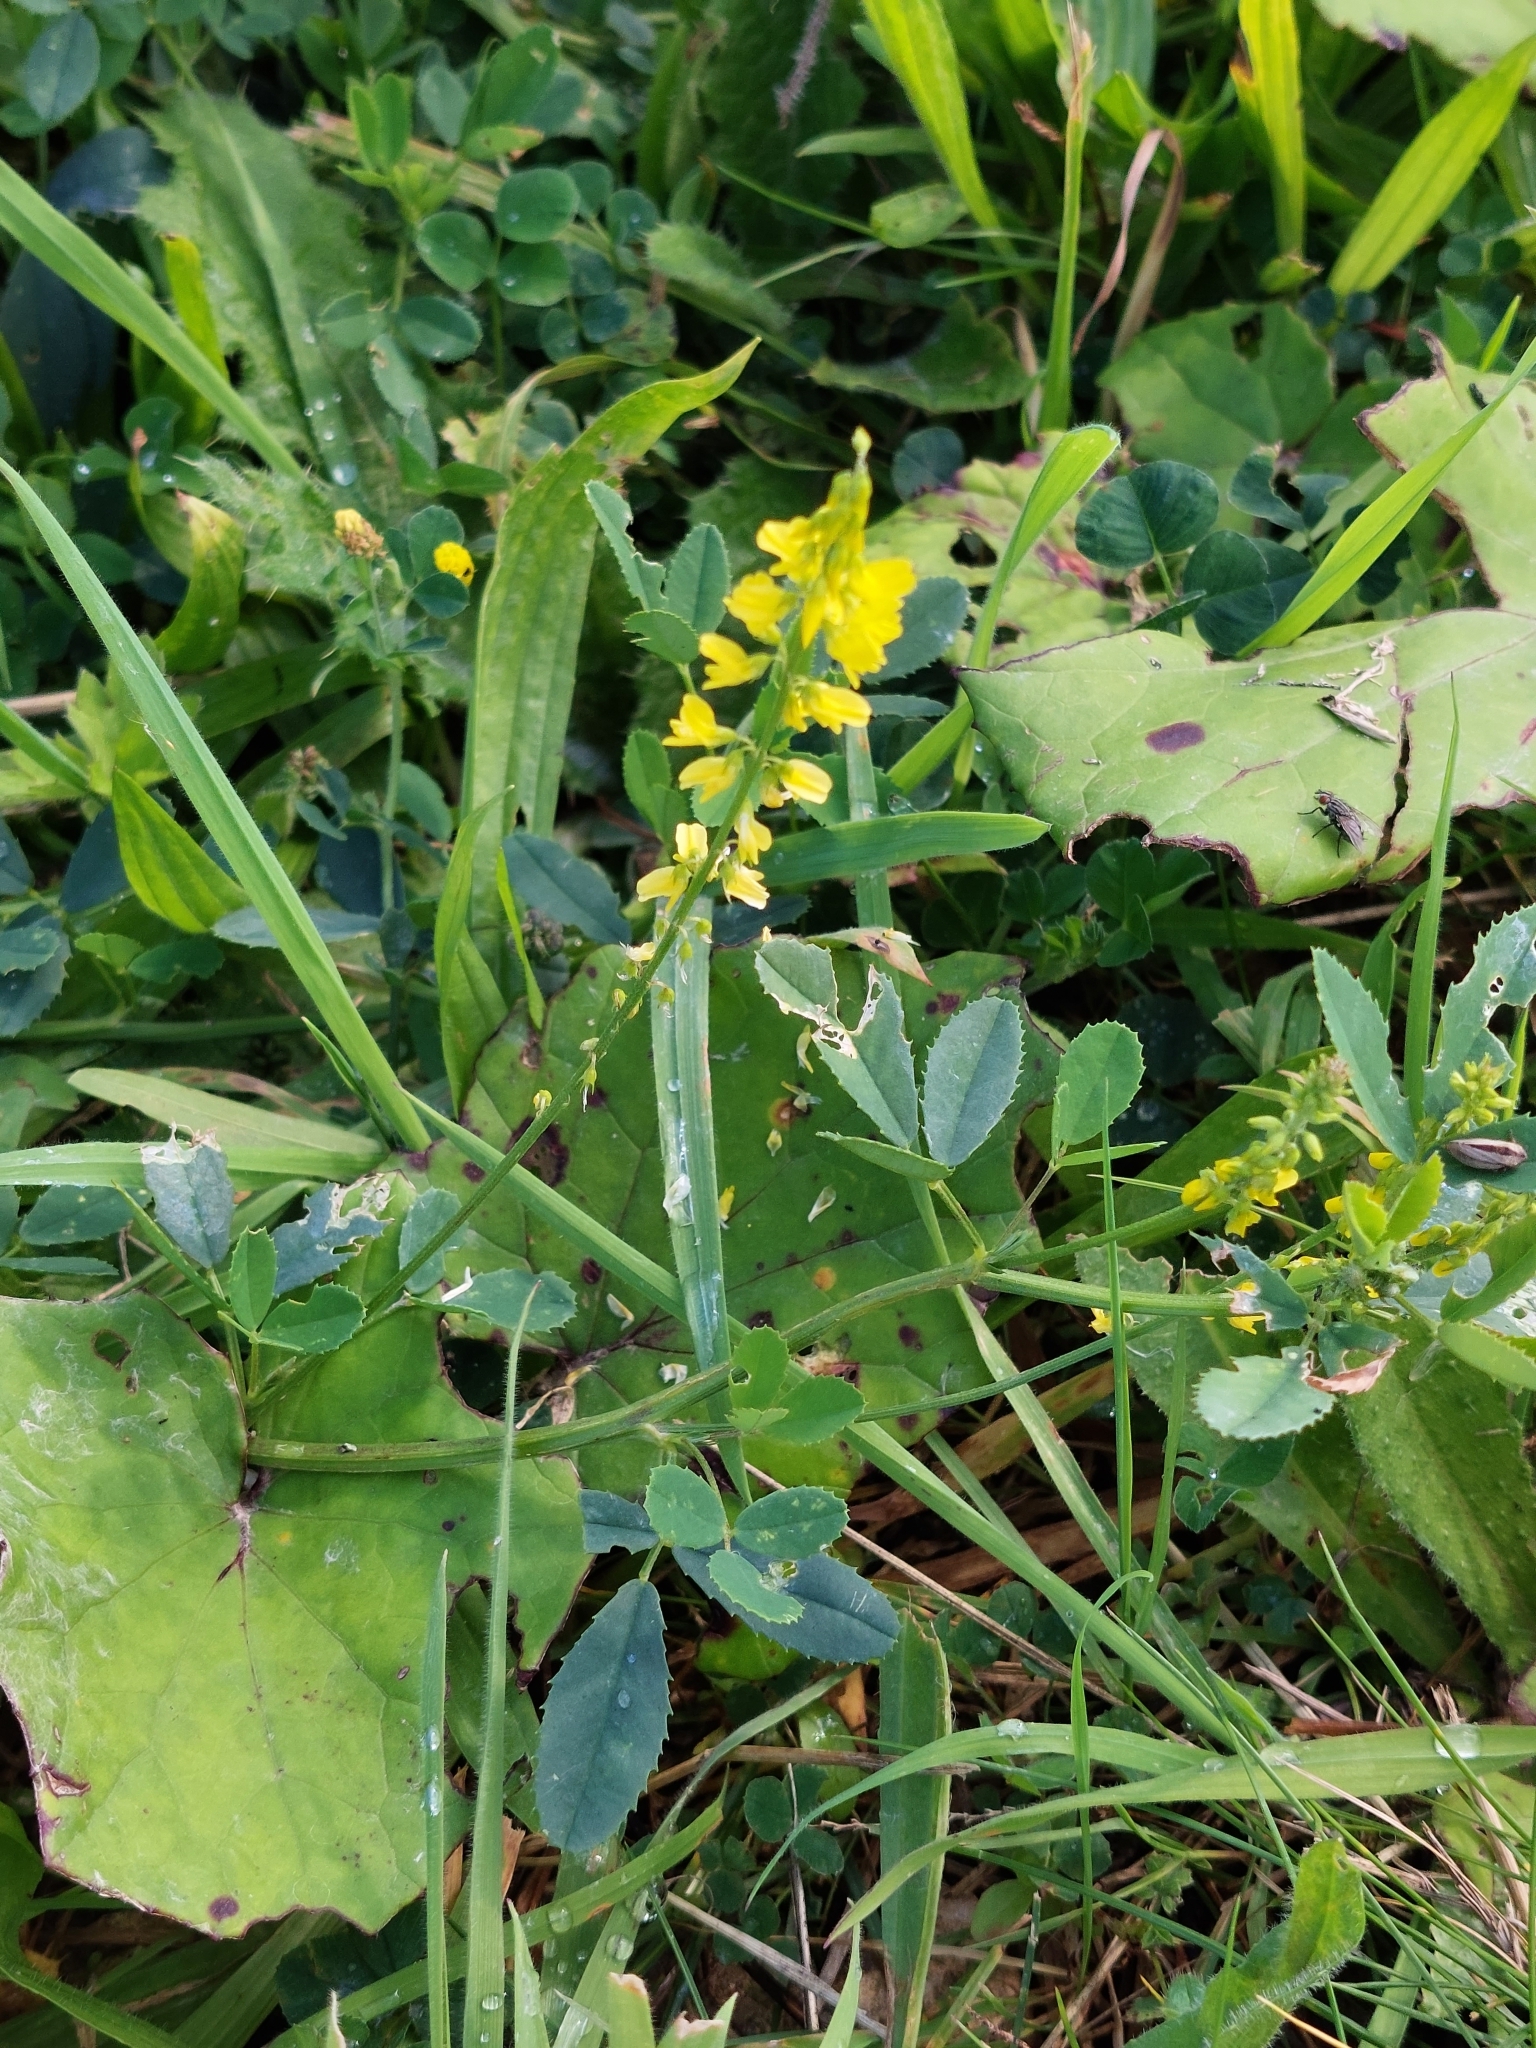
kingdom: Plantae
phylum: Tracheophyta
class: Magnoliopsida
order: Fabales
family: Fabaceae
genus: Melilotus
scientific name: Melilotus officinalis
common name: Sweetclover
